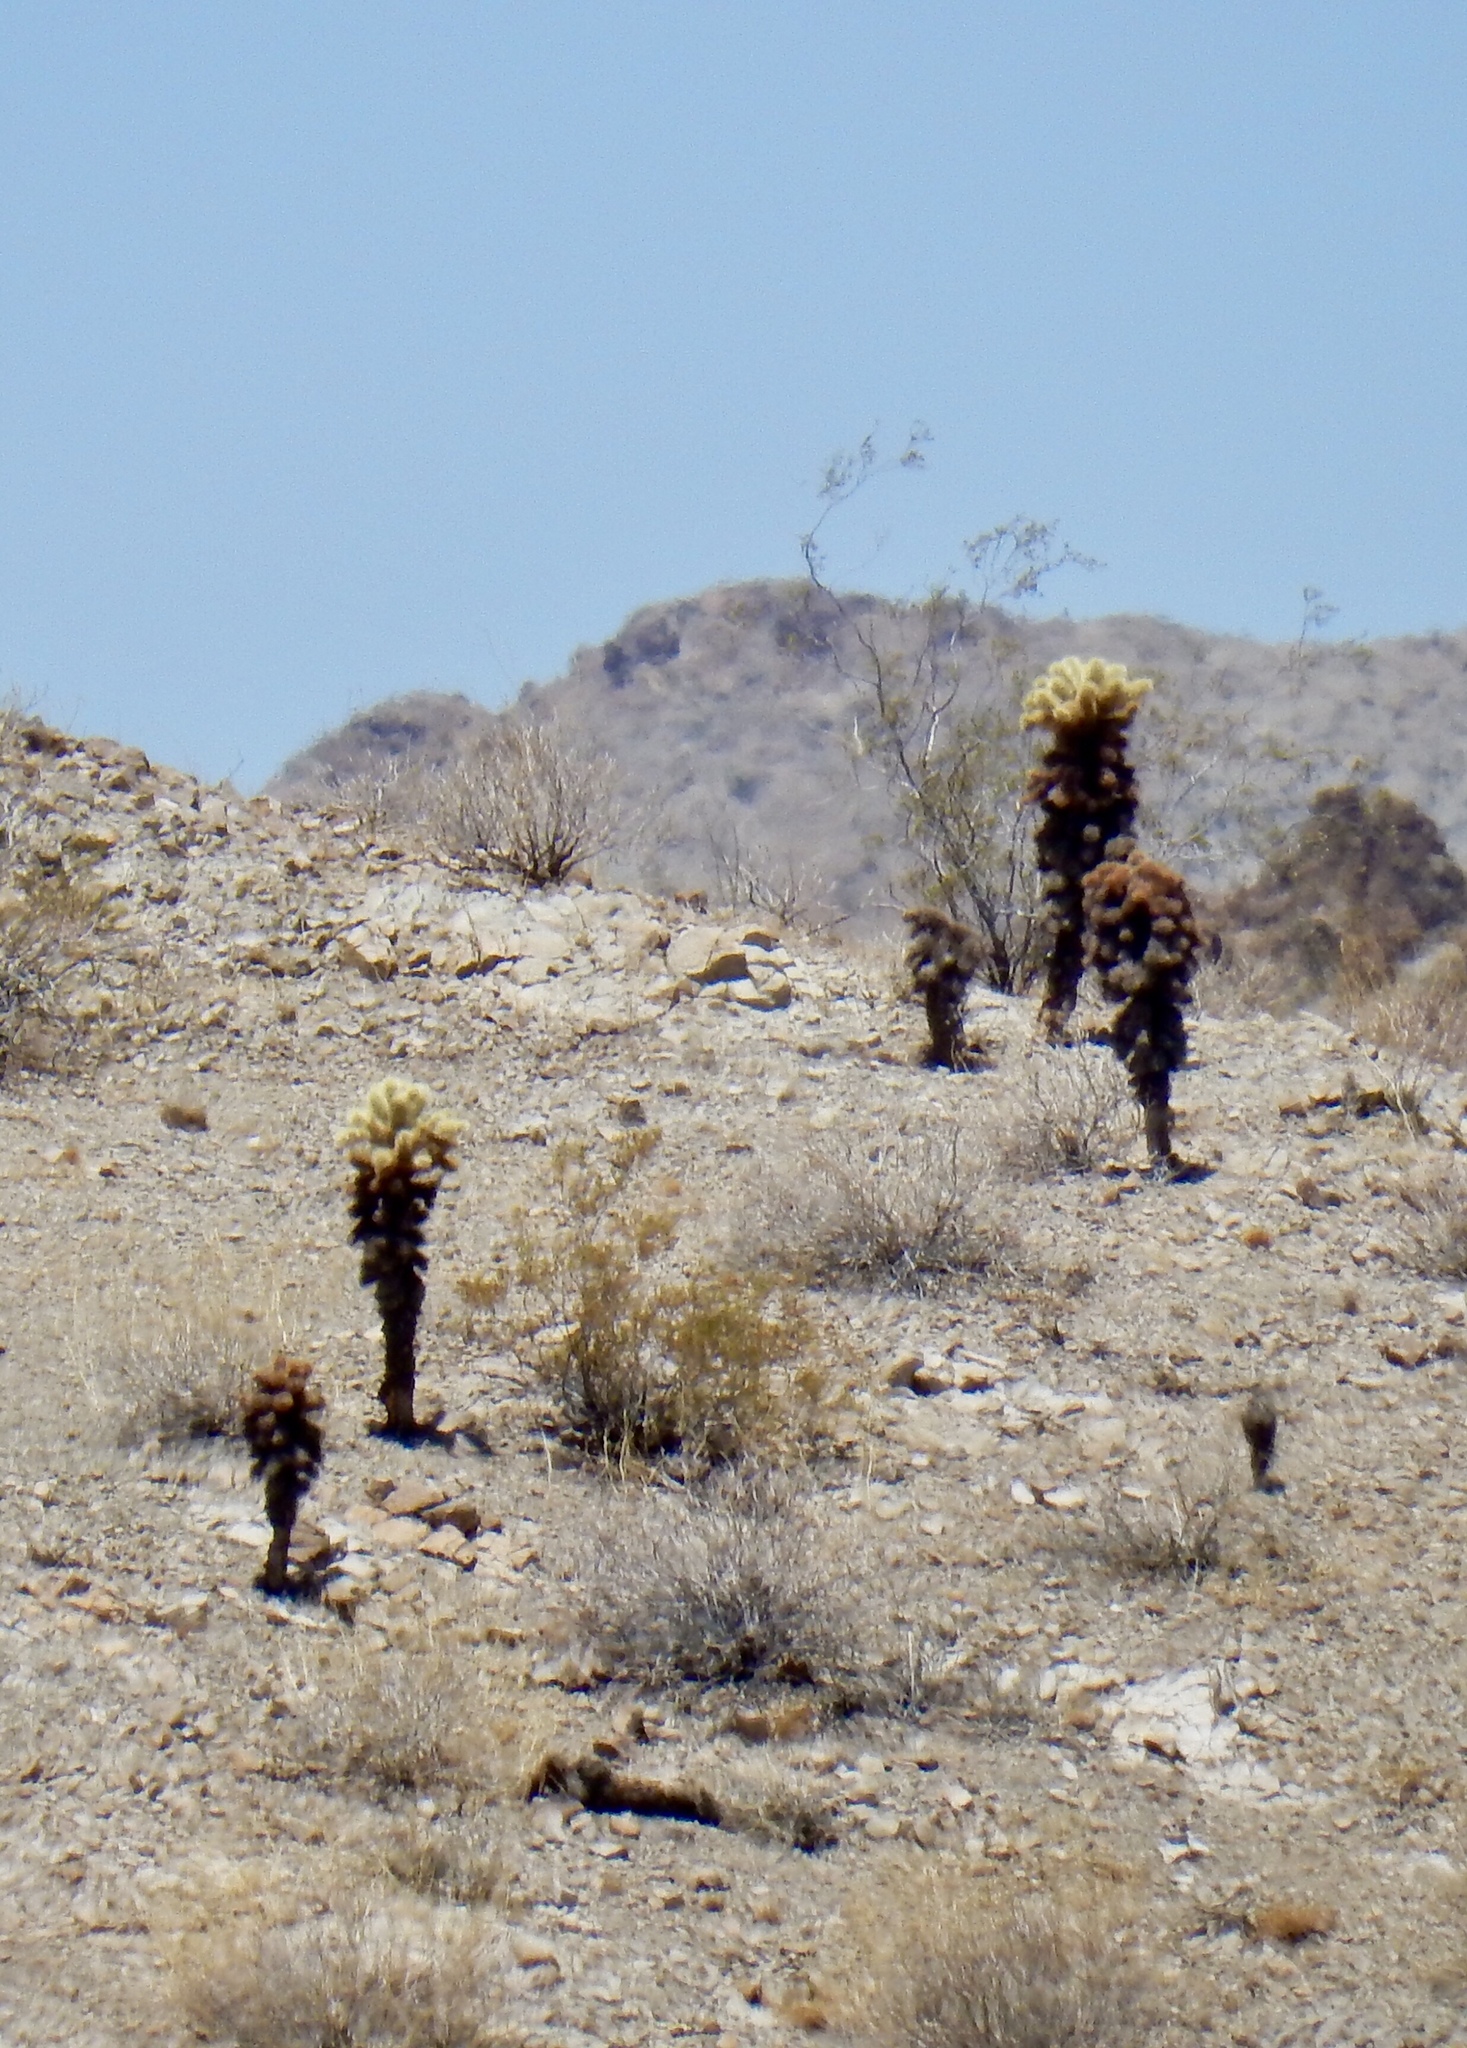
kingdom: Plantae
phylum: Tracheophyta
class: Magnoliopsida
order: Caryophyllales
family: Cactaceae
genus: Cylindropuntia
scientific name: Cylindropuntia fosbergii
